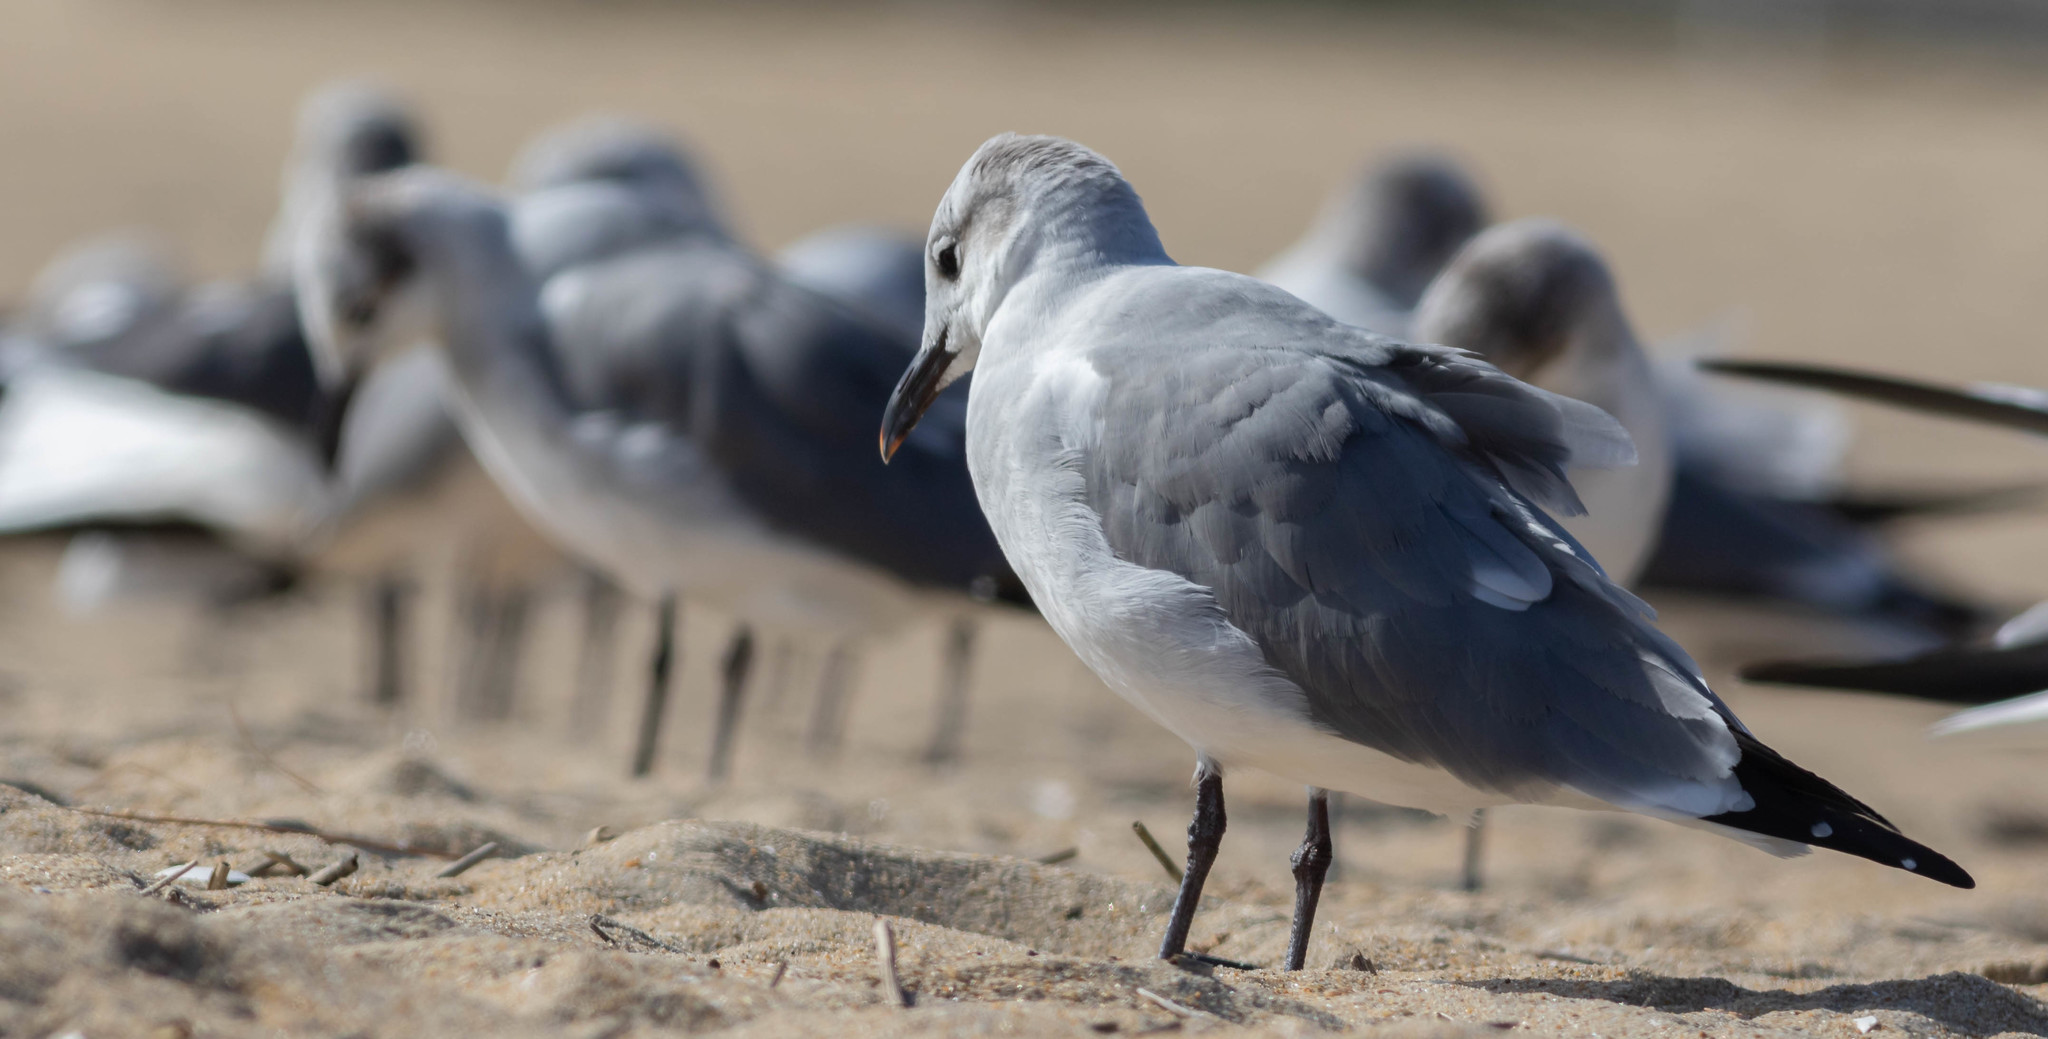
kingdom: Animalia
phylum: Chordata
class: Aves
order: Charadriiformes
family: Laridae
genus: Leucophaeus
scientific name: Leucophaeus atricilla
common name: Laughing gull
